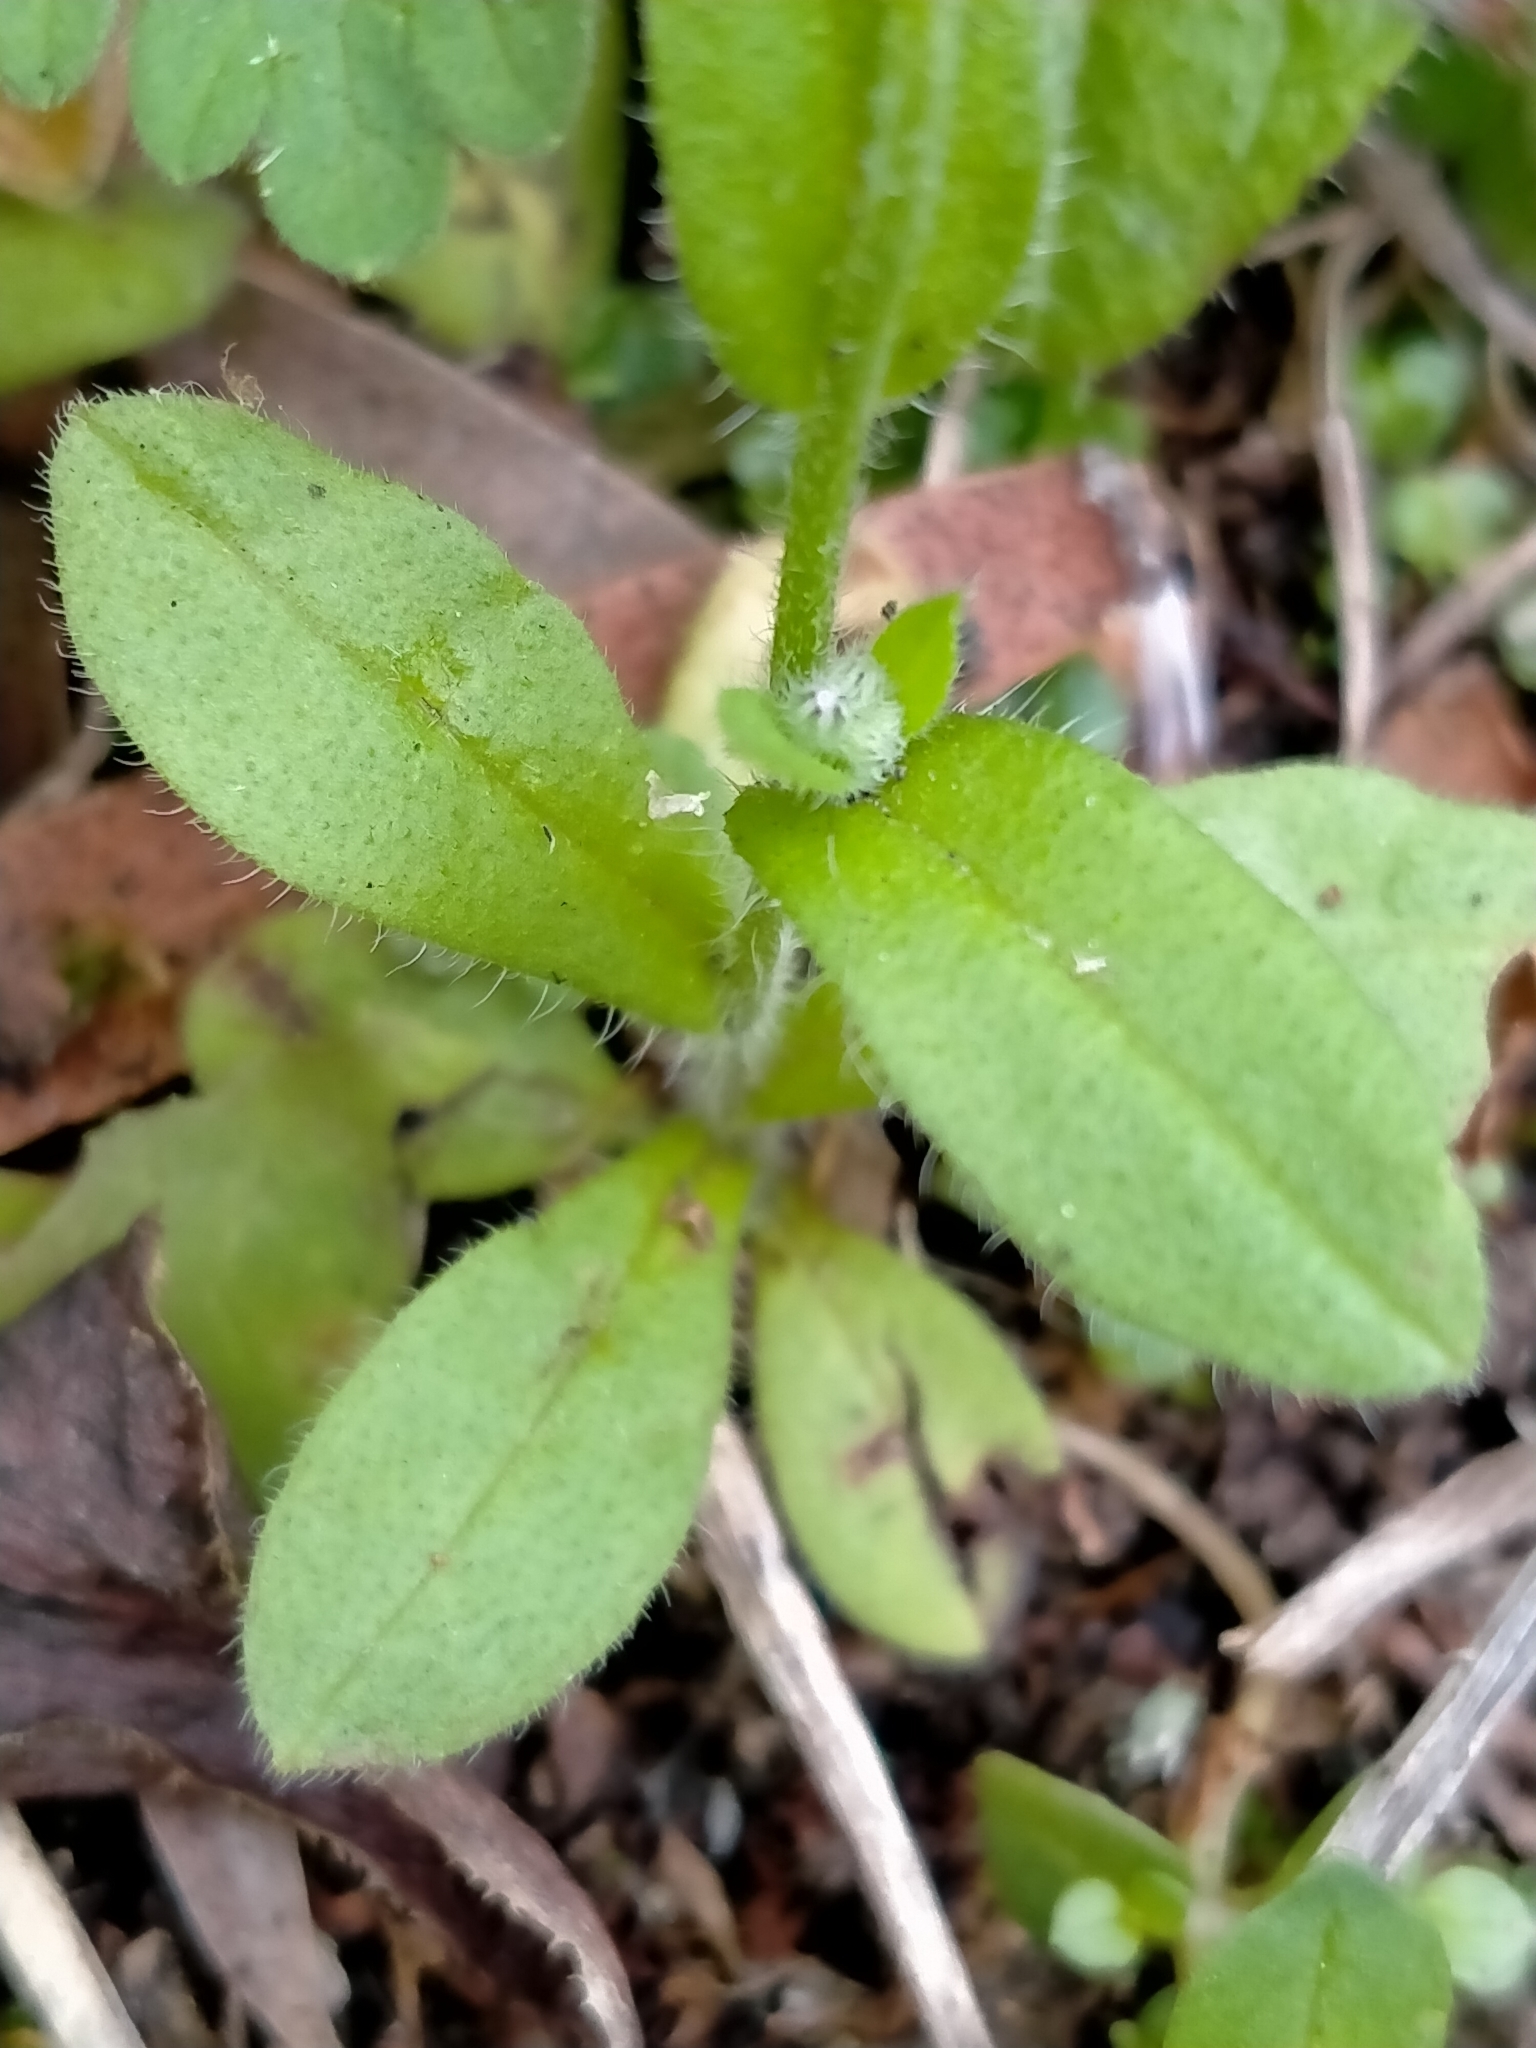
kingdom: Plantae
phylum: Tracheophyta
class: Magnoliopsida
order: Boraginales
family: Boraginaceae
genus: Myosotis
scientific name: Myosotis arvensis
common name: Field forget-me-not
